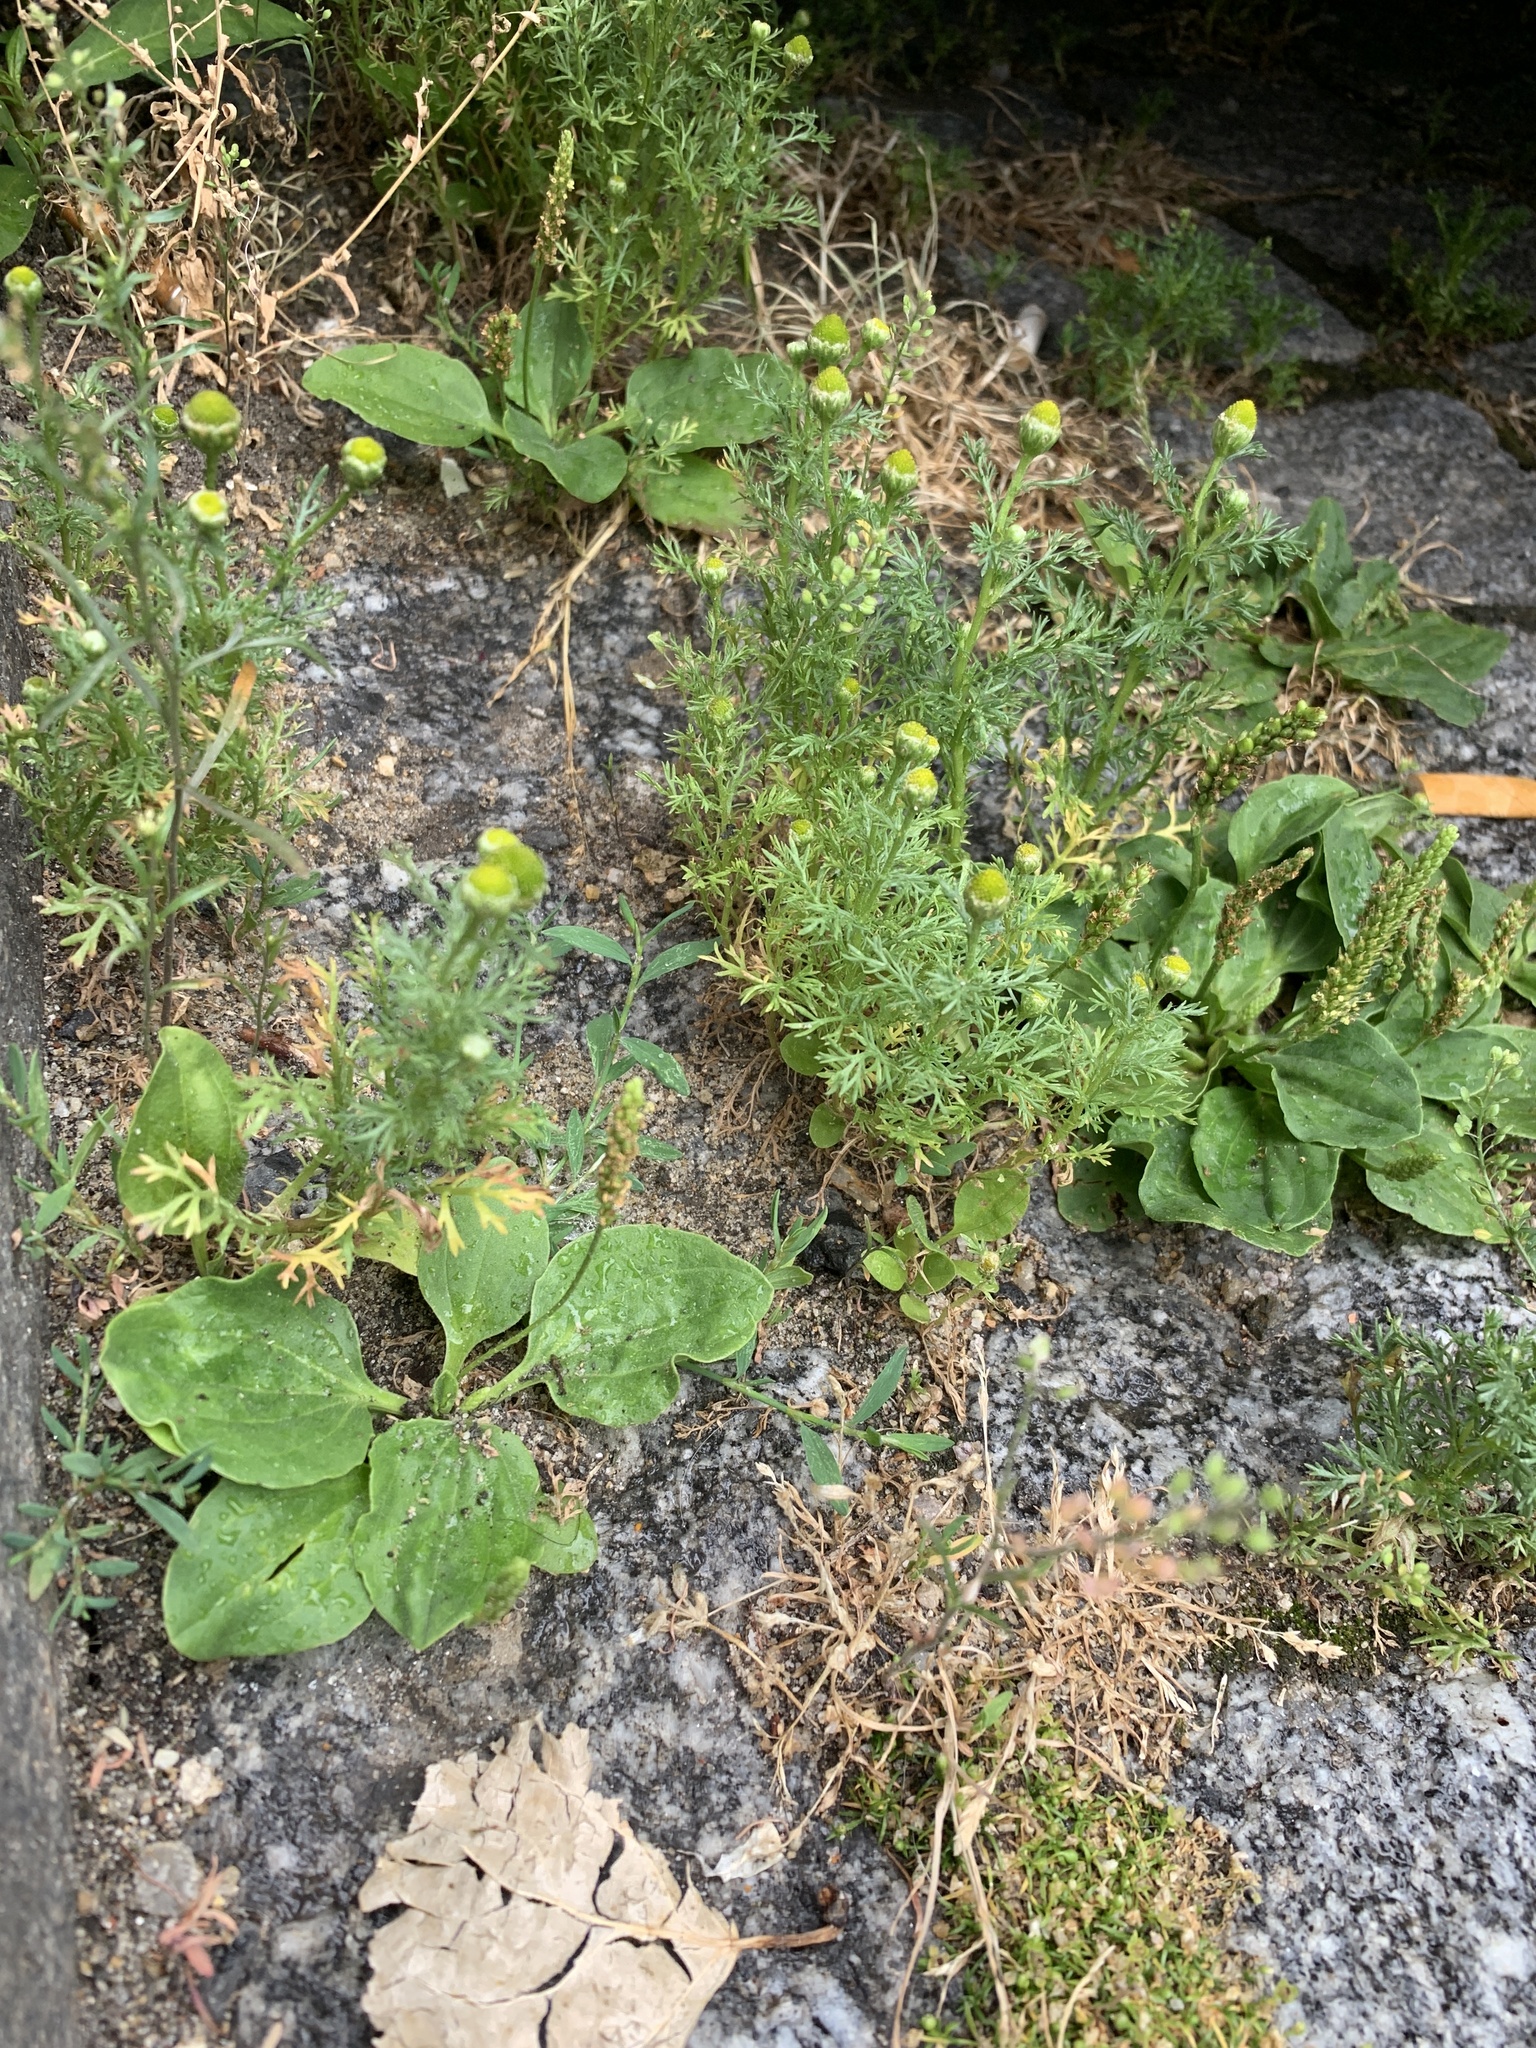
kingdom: Plantae
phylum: Tracheophyta
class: Magnoliopsida
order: Asterales
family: Asteraceae
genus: Matricaria
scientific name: Matricaria discoidea
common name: Disc mayweed
